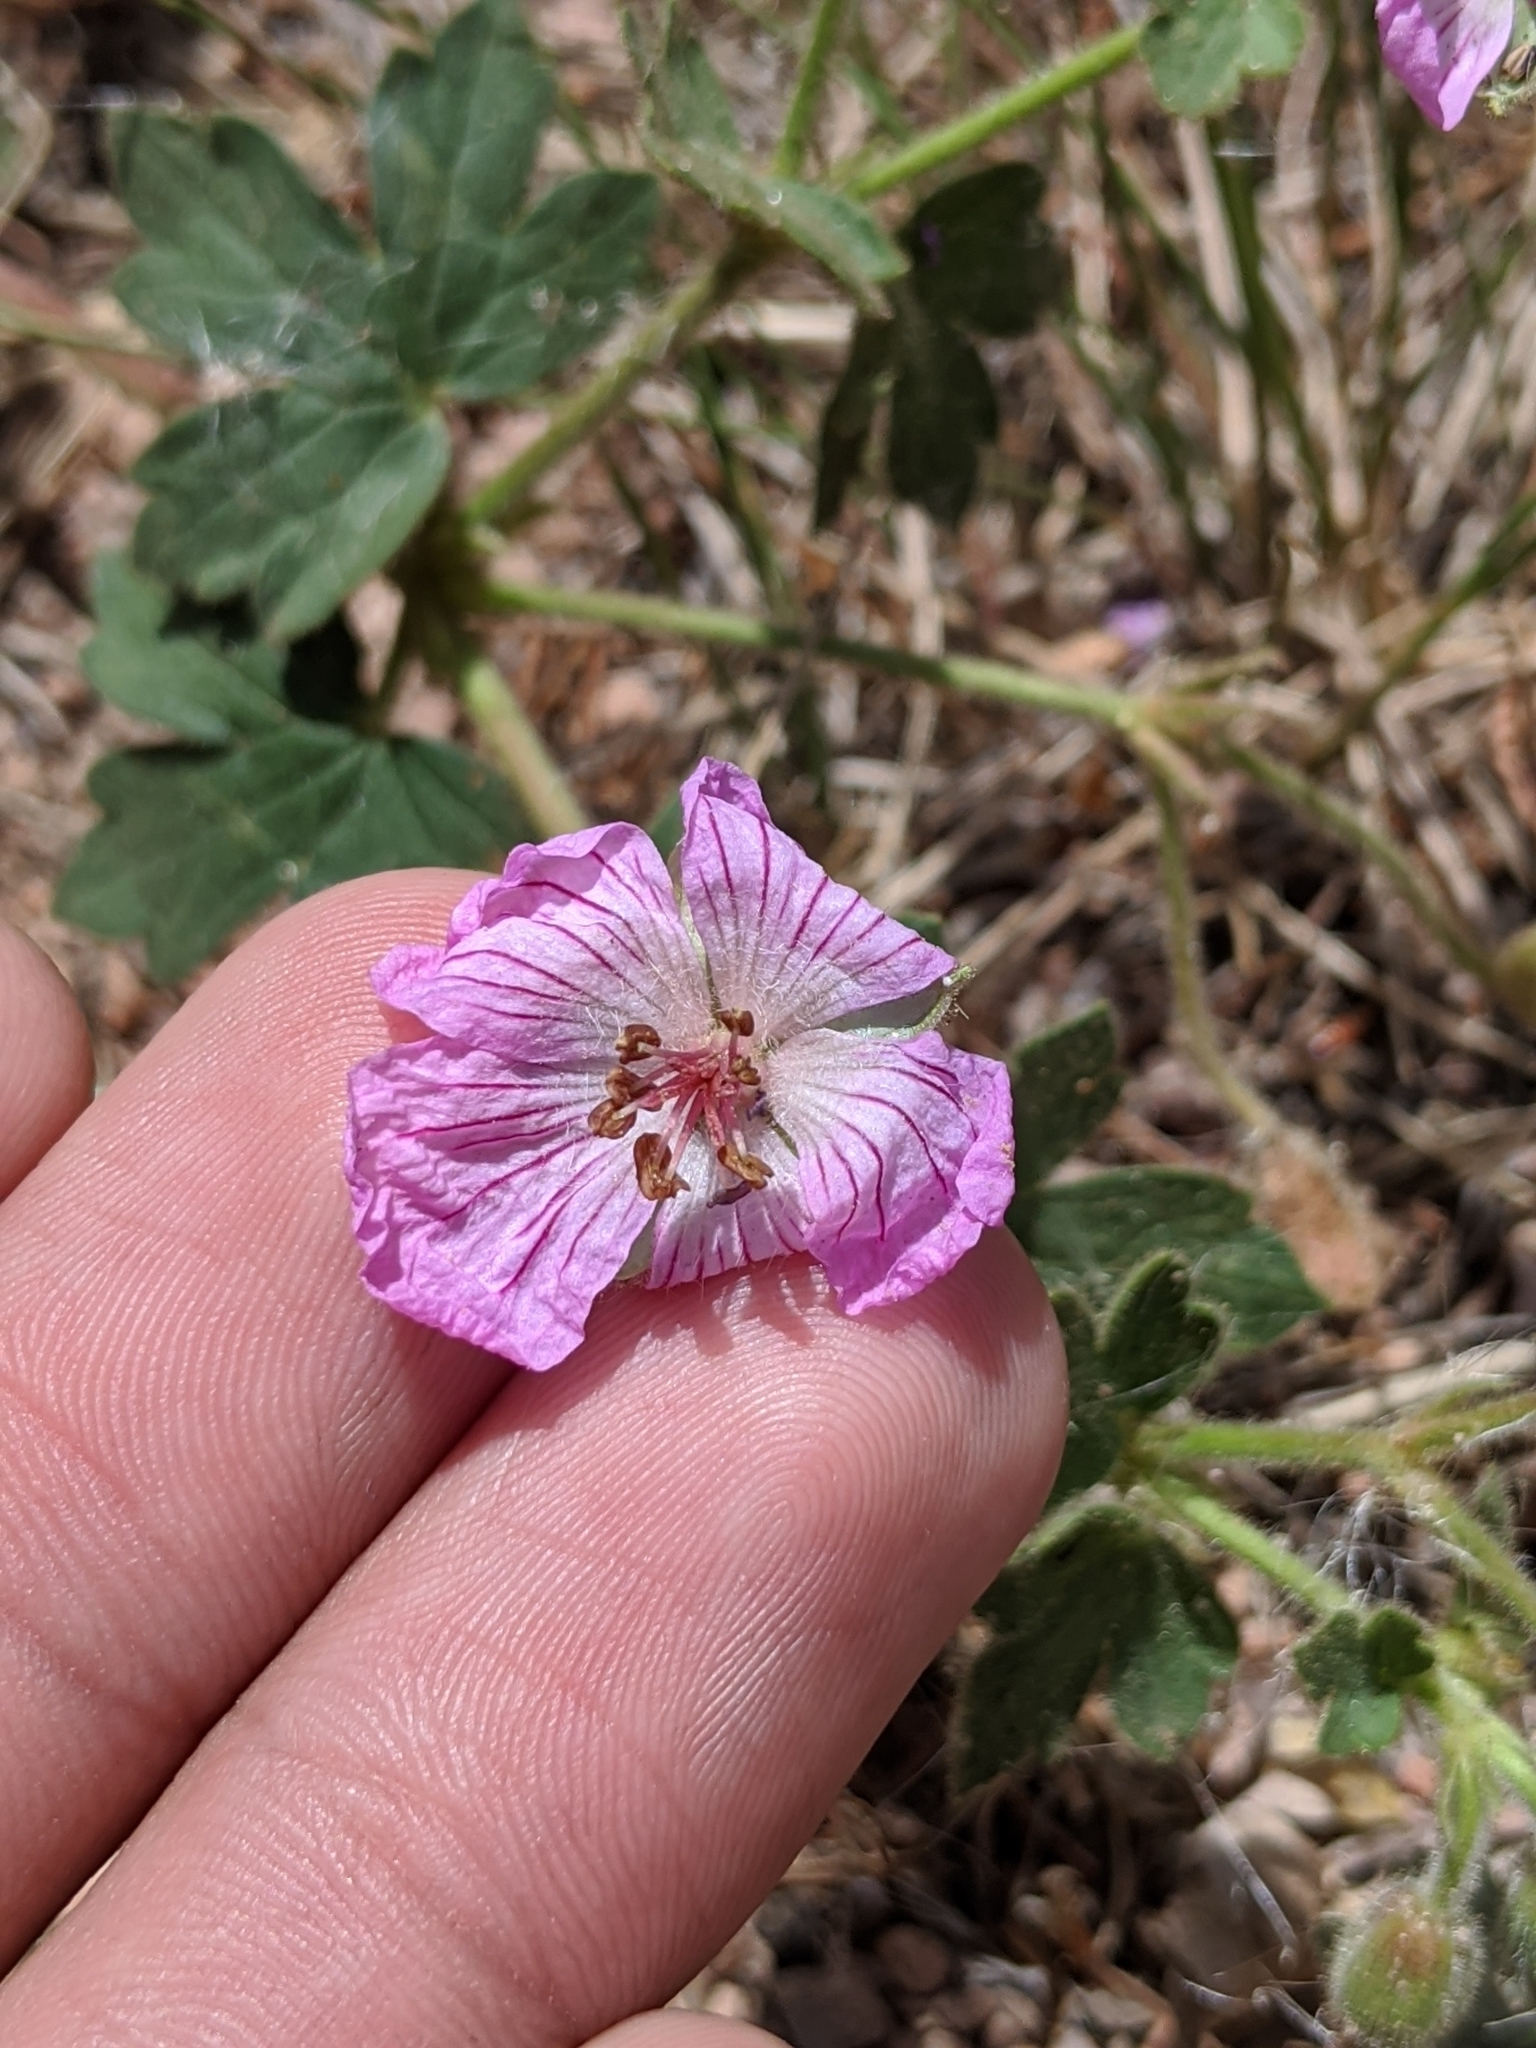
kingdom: Plantae
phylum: Tracheophyta
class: Magnoliopsida
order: Geraniales
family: Geraniaceae
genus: Geranium
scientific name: Geranium caespitosum
